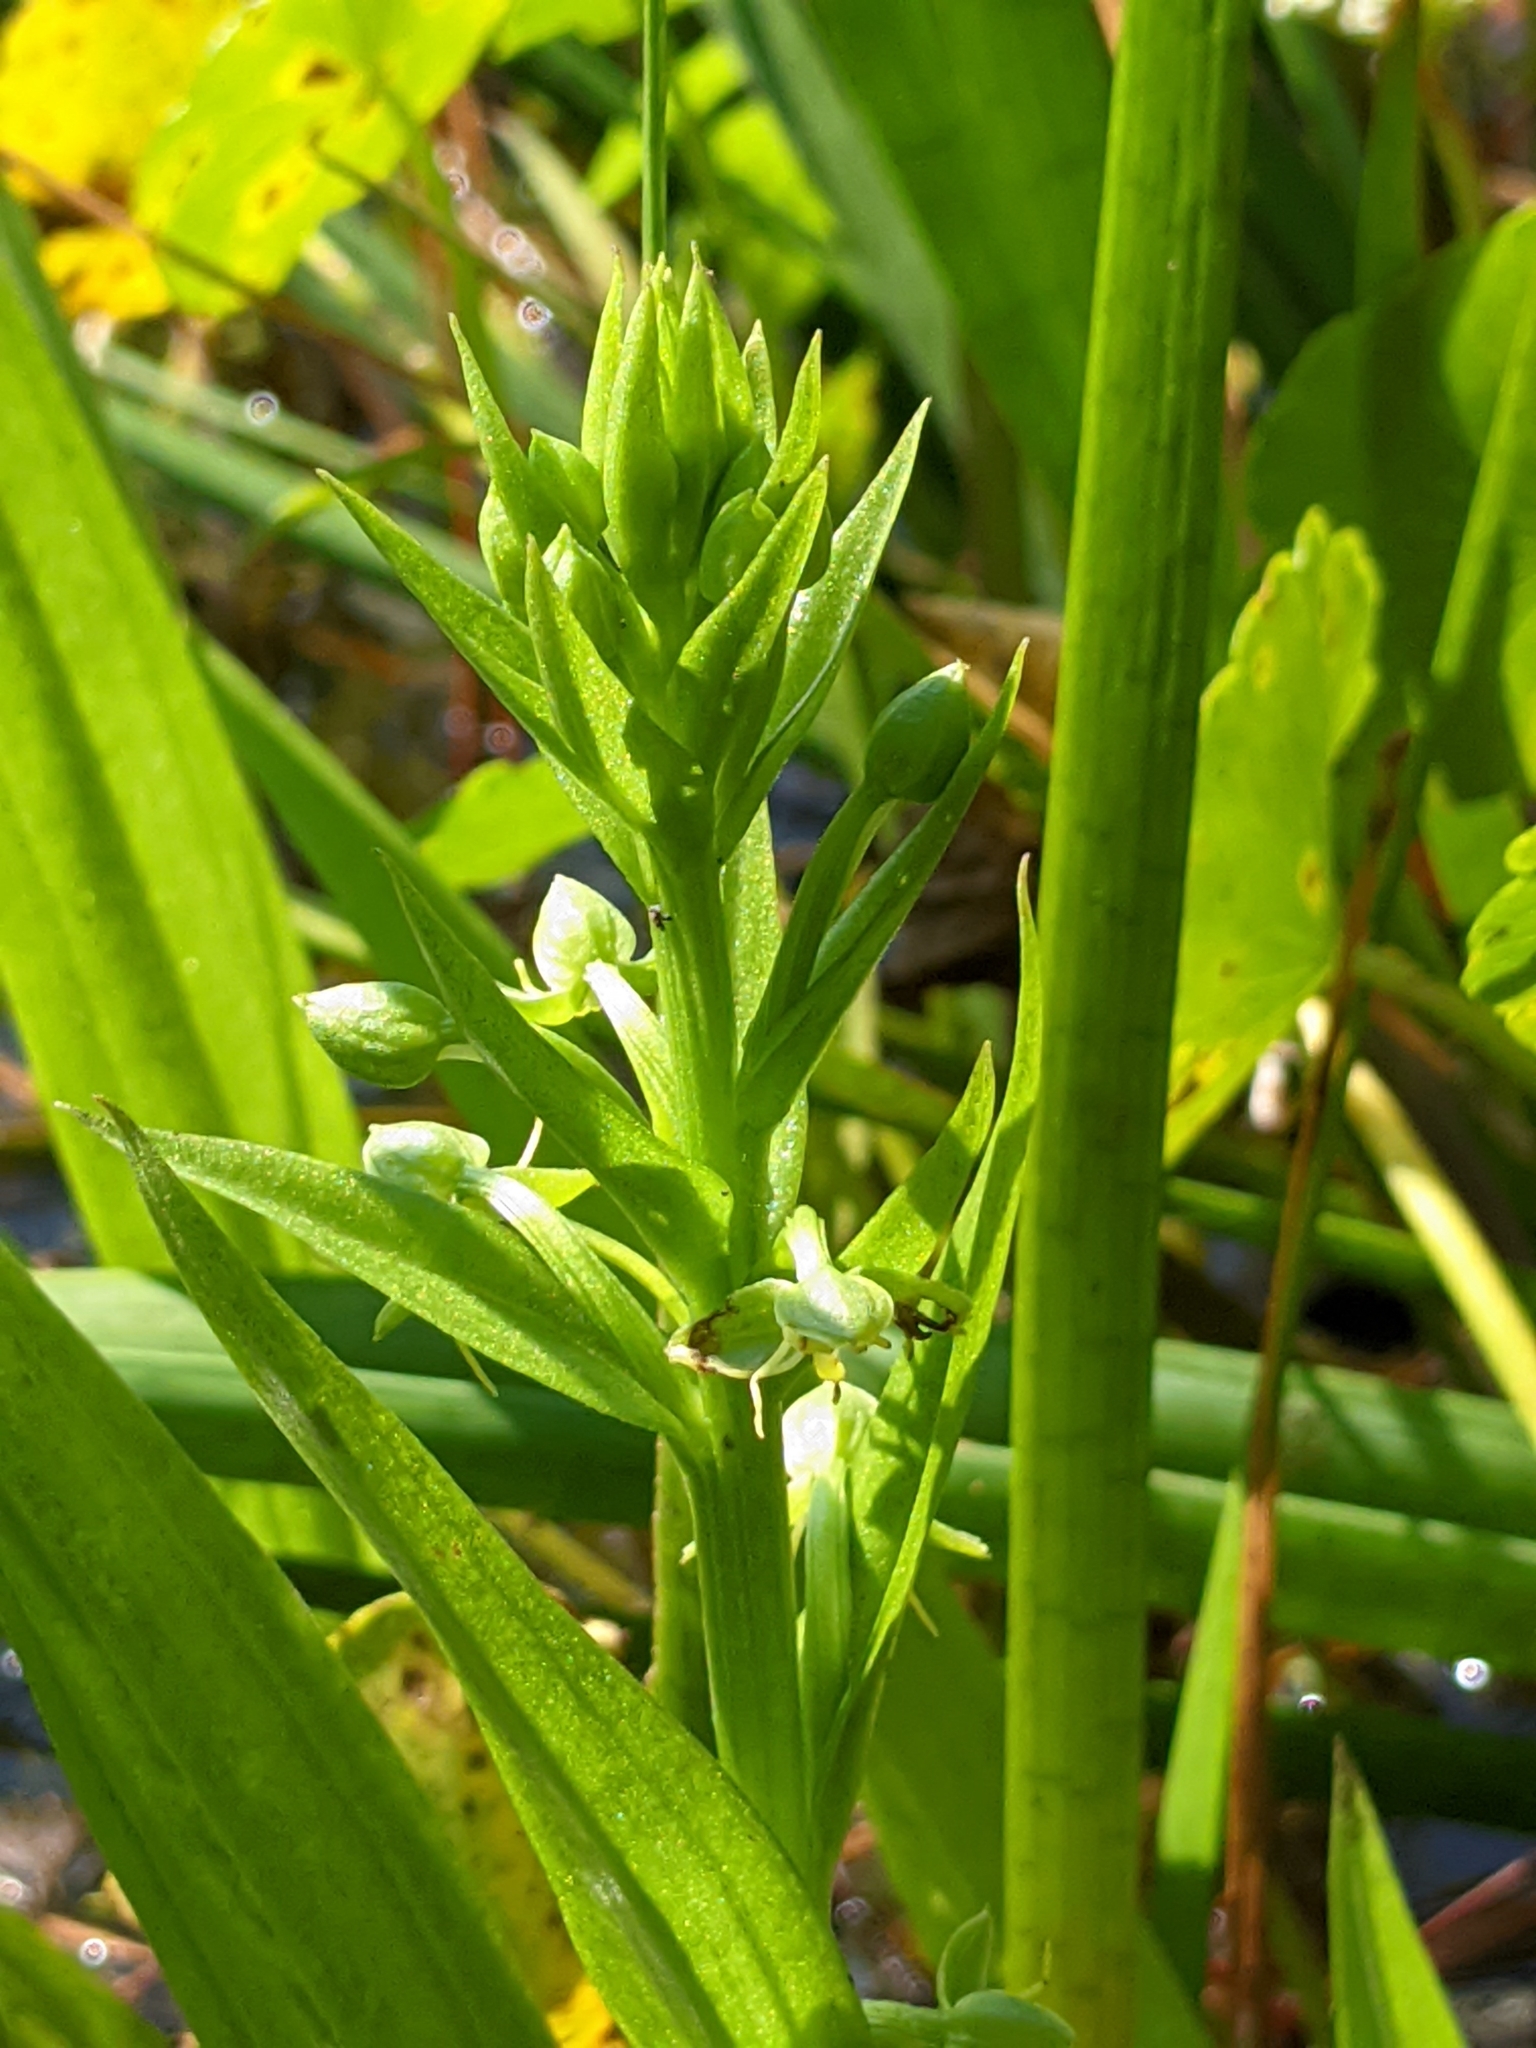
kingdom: Plantae
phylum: Tracheophyta
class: Liliopsida
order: Asparagales
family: Orchidaceae
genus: Habenaria
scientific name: Habenaria repens
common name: Water orchid
